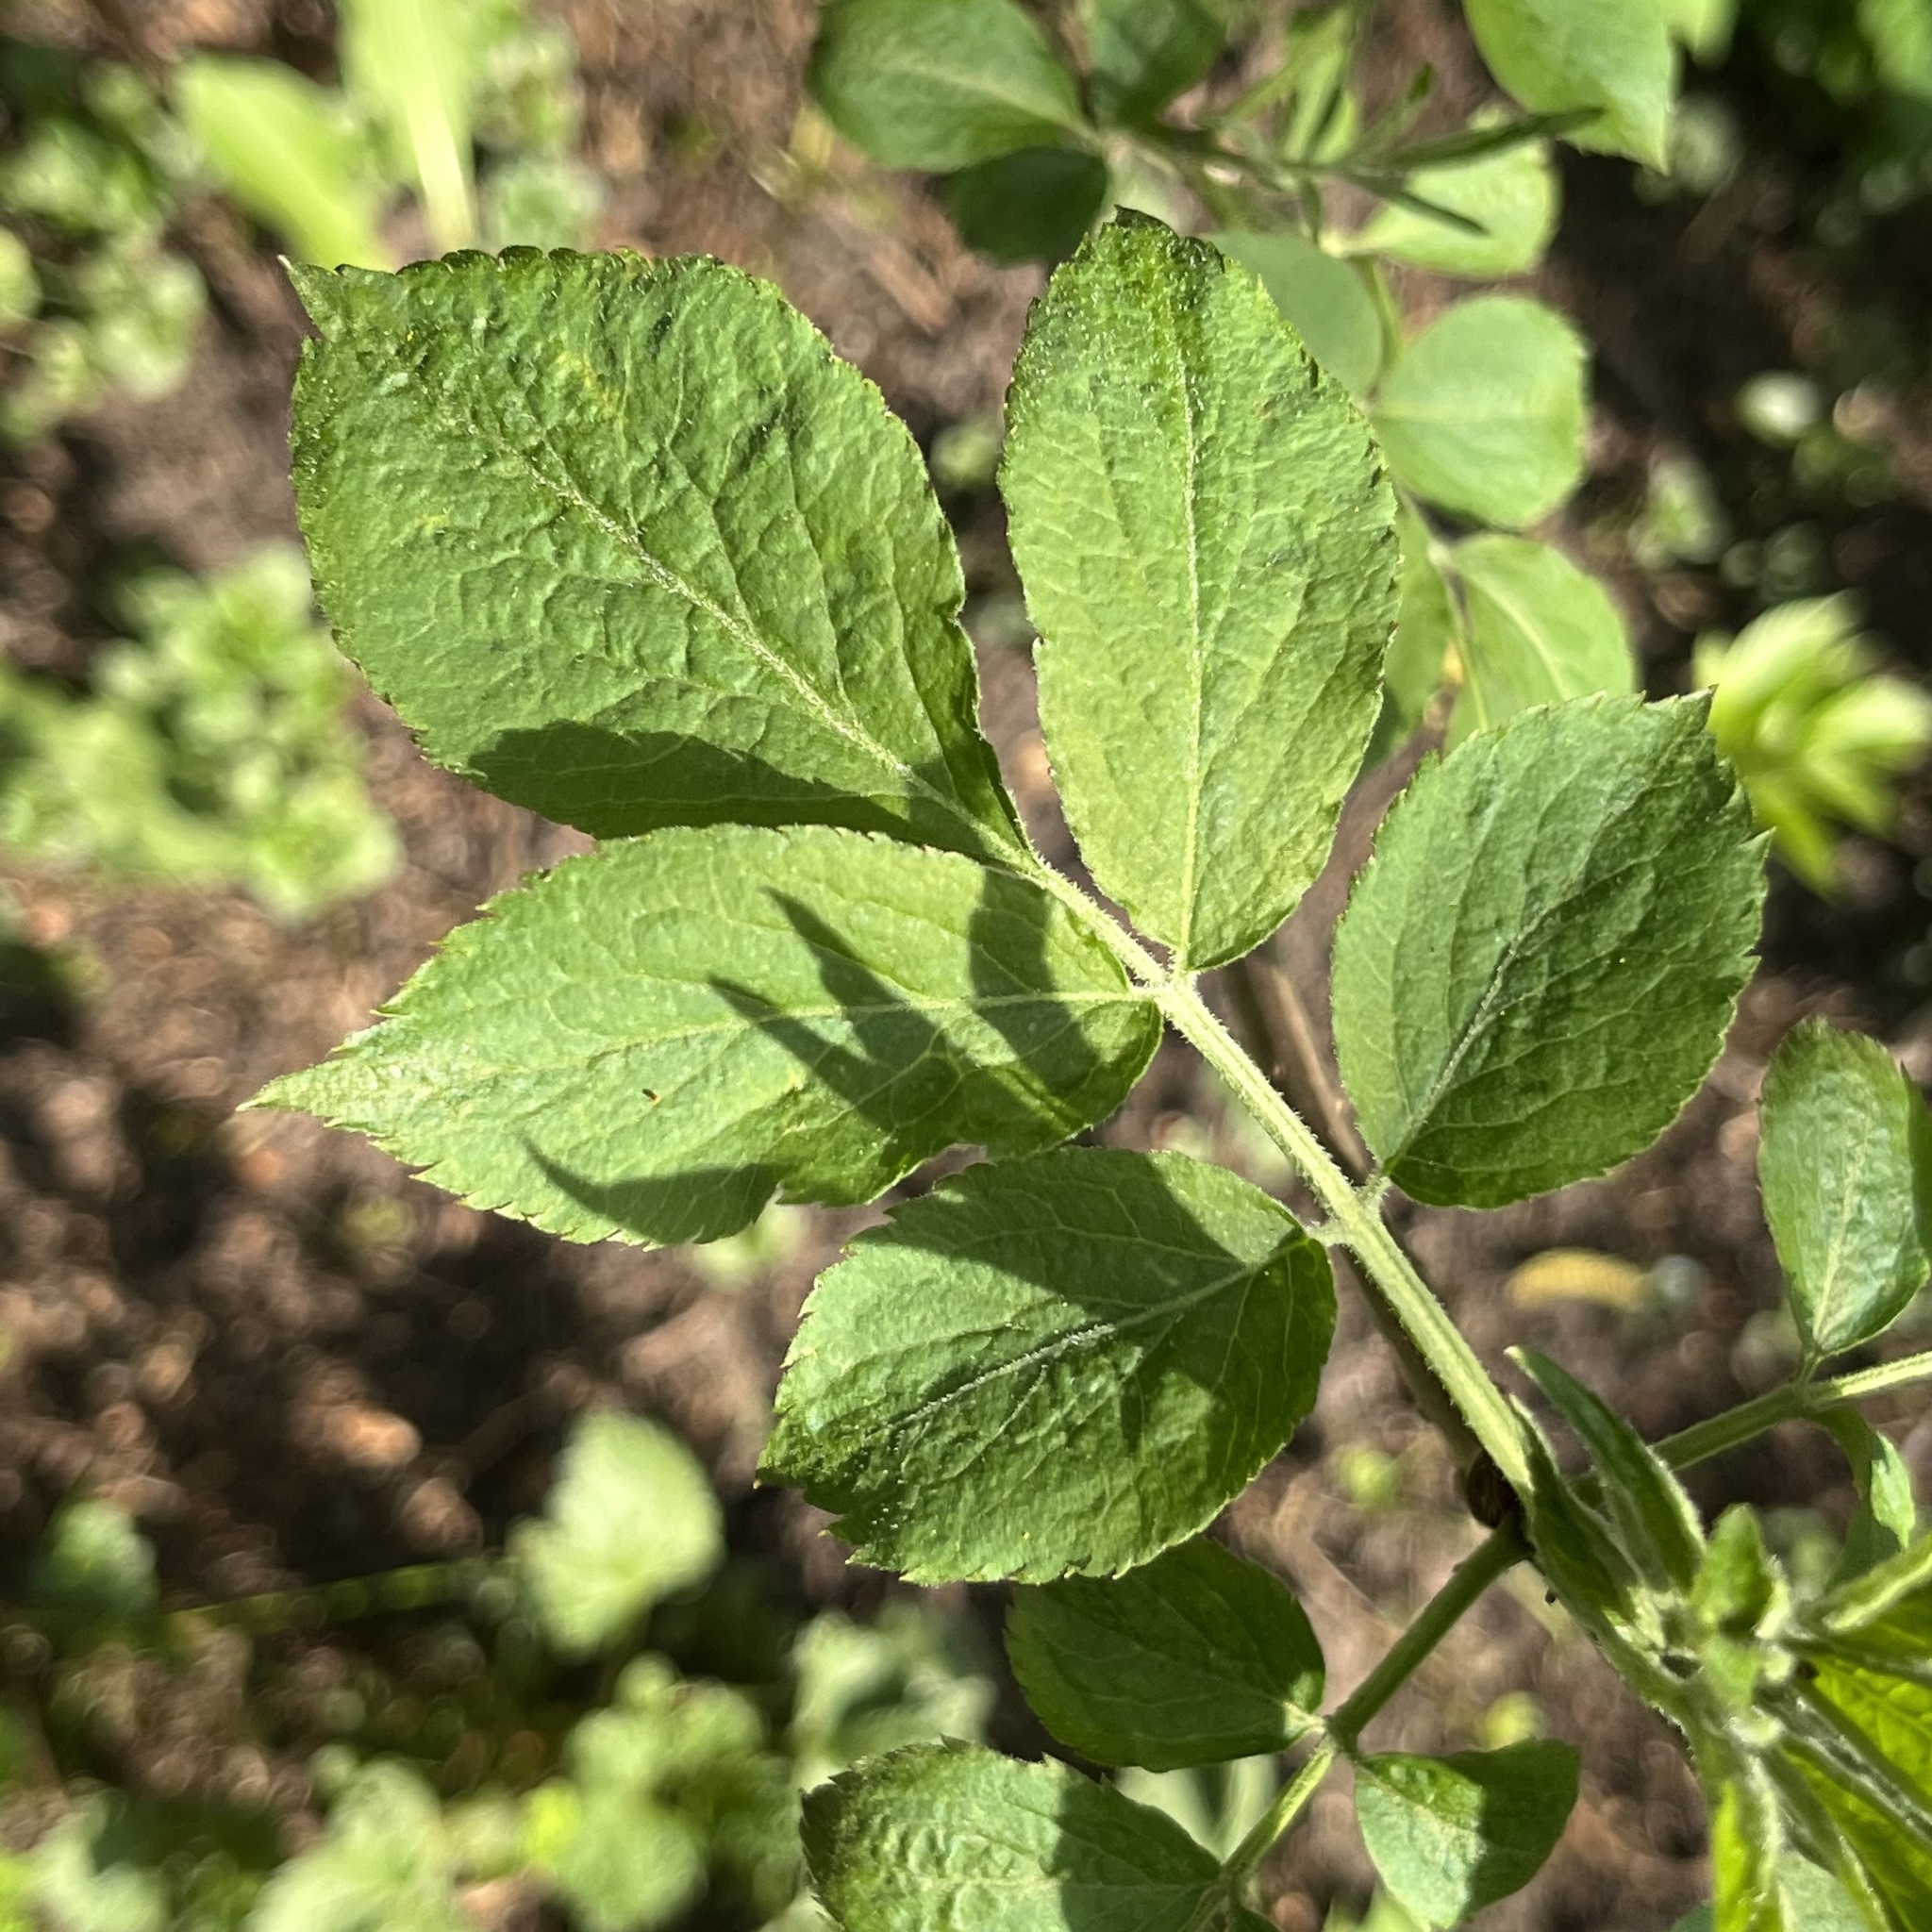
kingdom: Plantae
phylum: Tracheophyta
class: Magnoliopsida
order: Dipsacales
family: Viburnaceae
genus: Sambucus
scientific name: Sambucus nigra
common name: Elder
